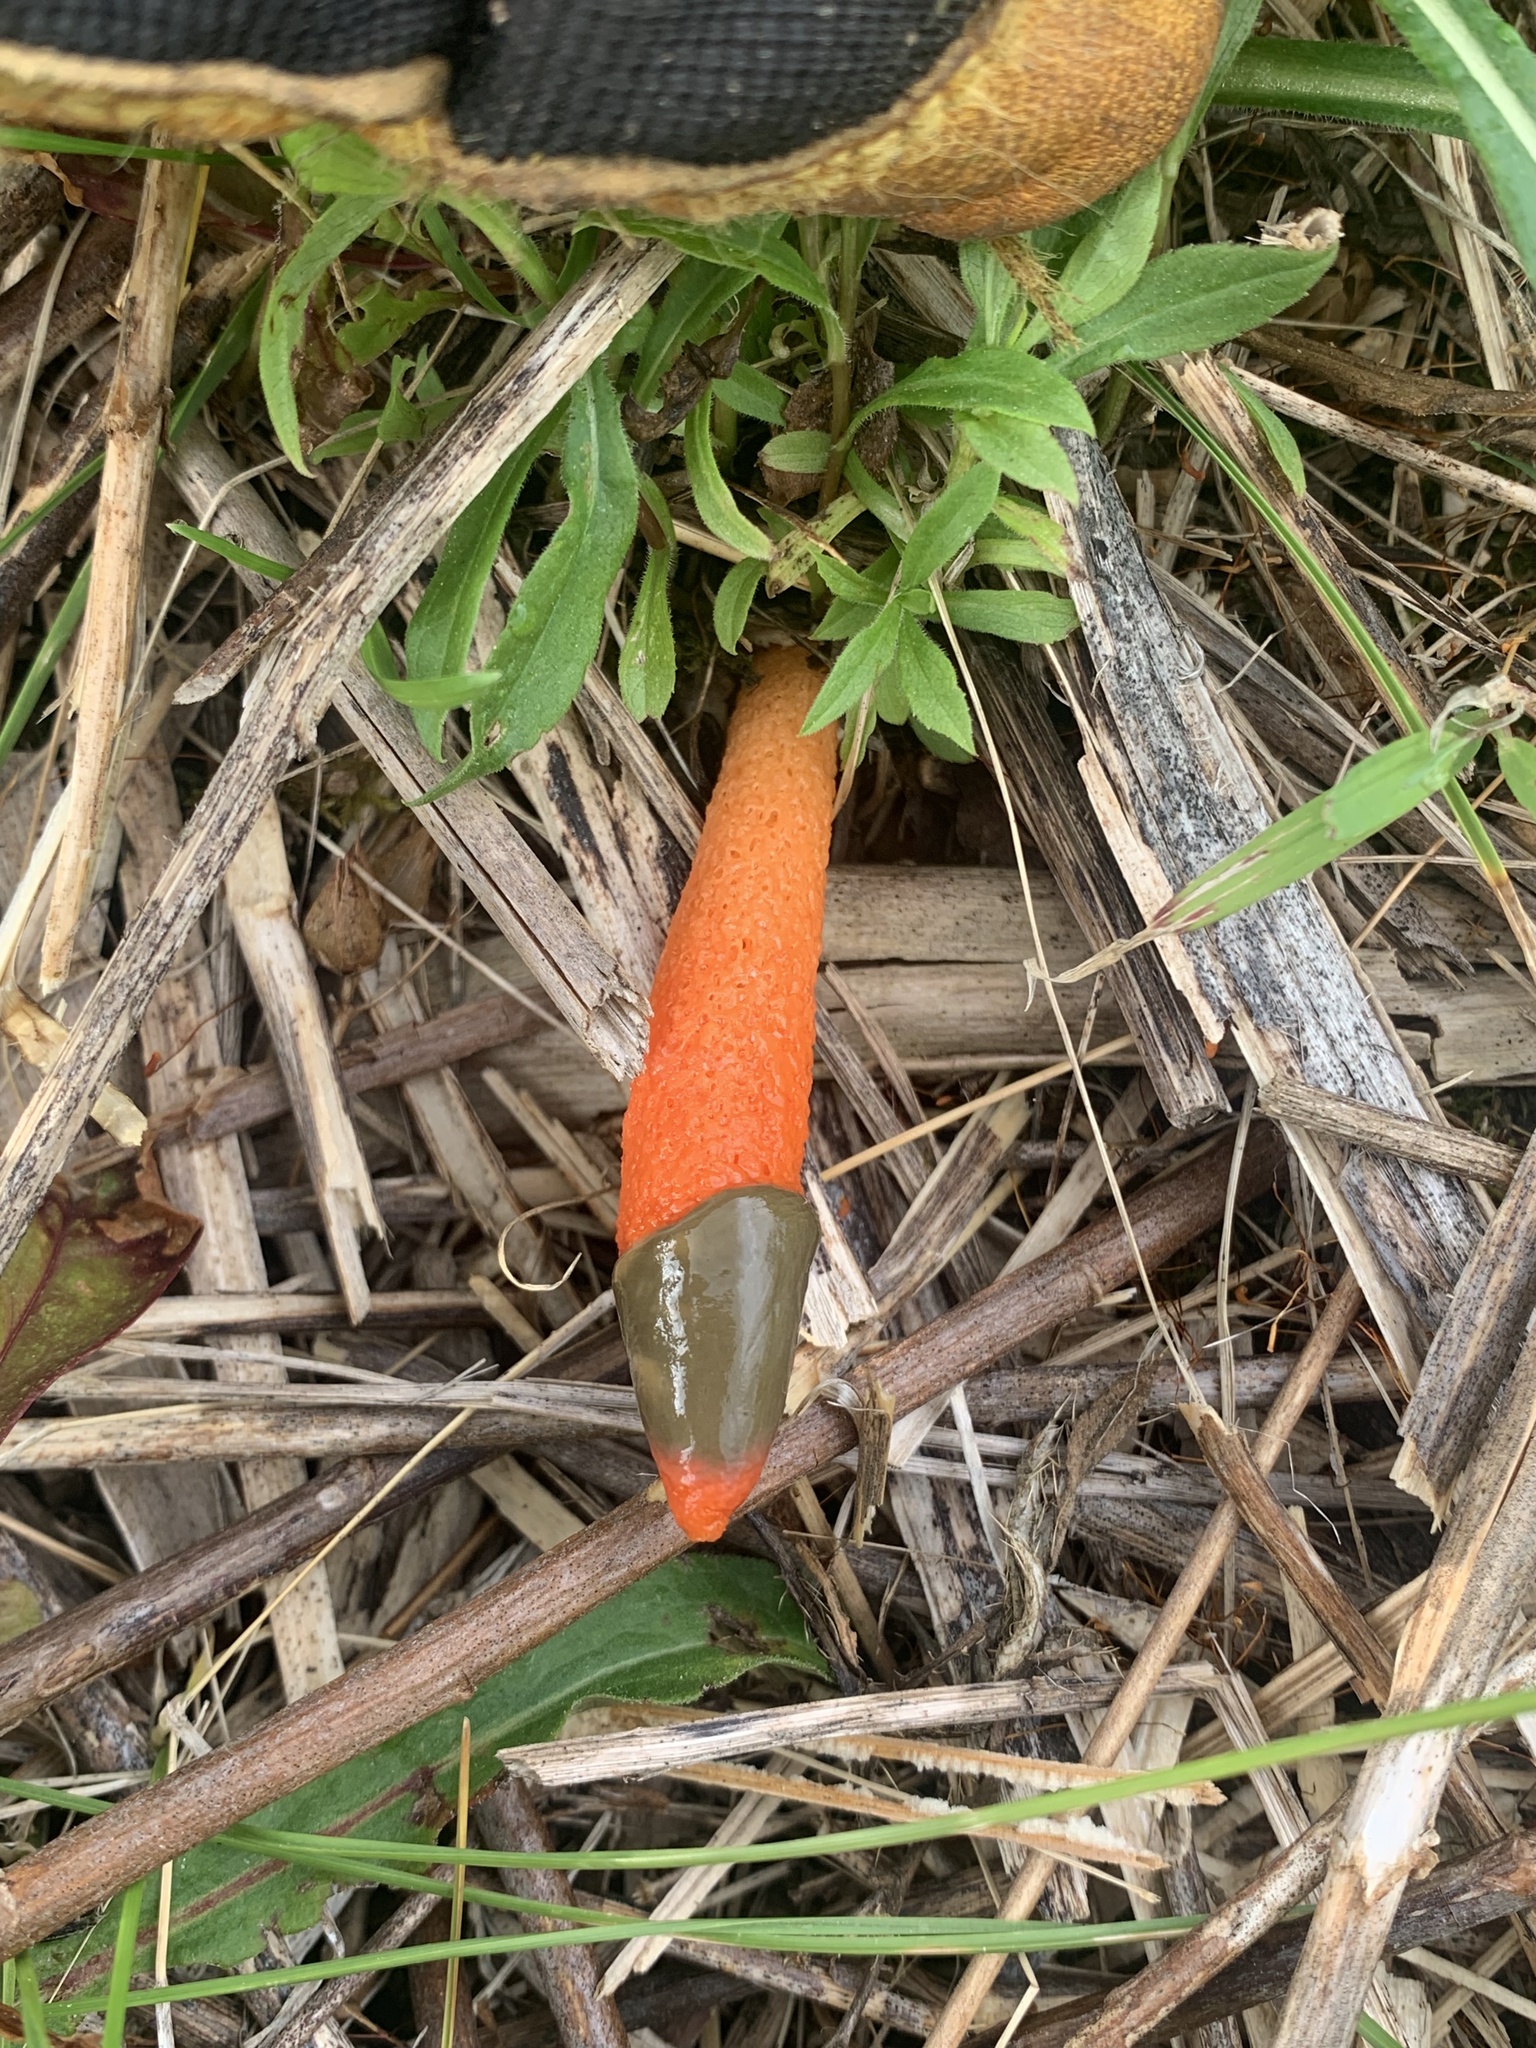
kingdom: Fungi
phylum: Basidiomycota
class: Agaricomycetes
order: Phallales
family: Phallaceae
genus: Mutinus
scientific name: Mutinus elegans
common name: Devil's dipstick
